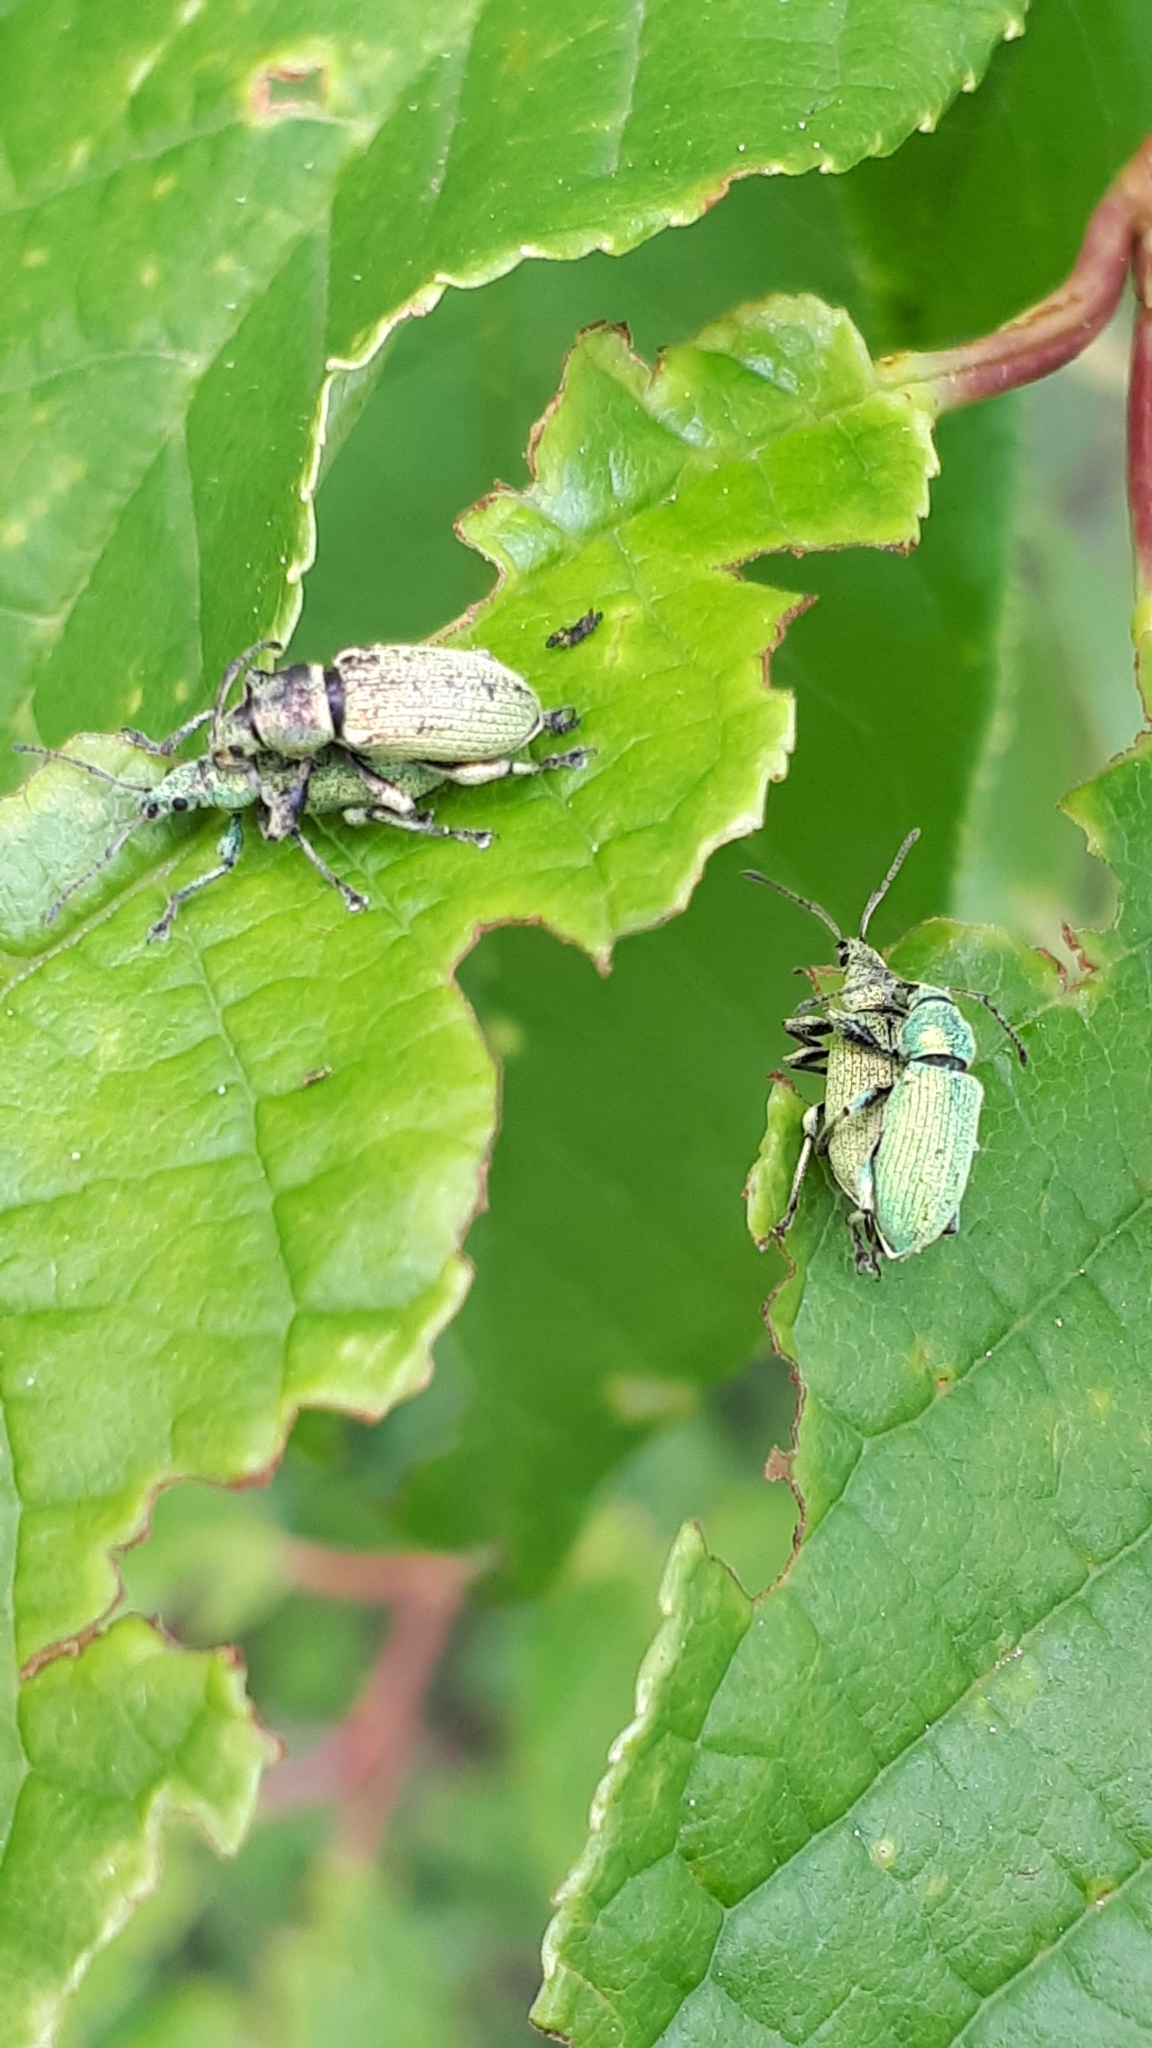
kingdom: Animalia
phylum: Arthropoda
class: Insecta
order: Coleoptera
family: Curculionidae
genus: Phyllobius
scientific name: Phyllobius maculicornis
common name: Green leaf weevil
